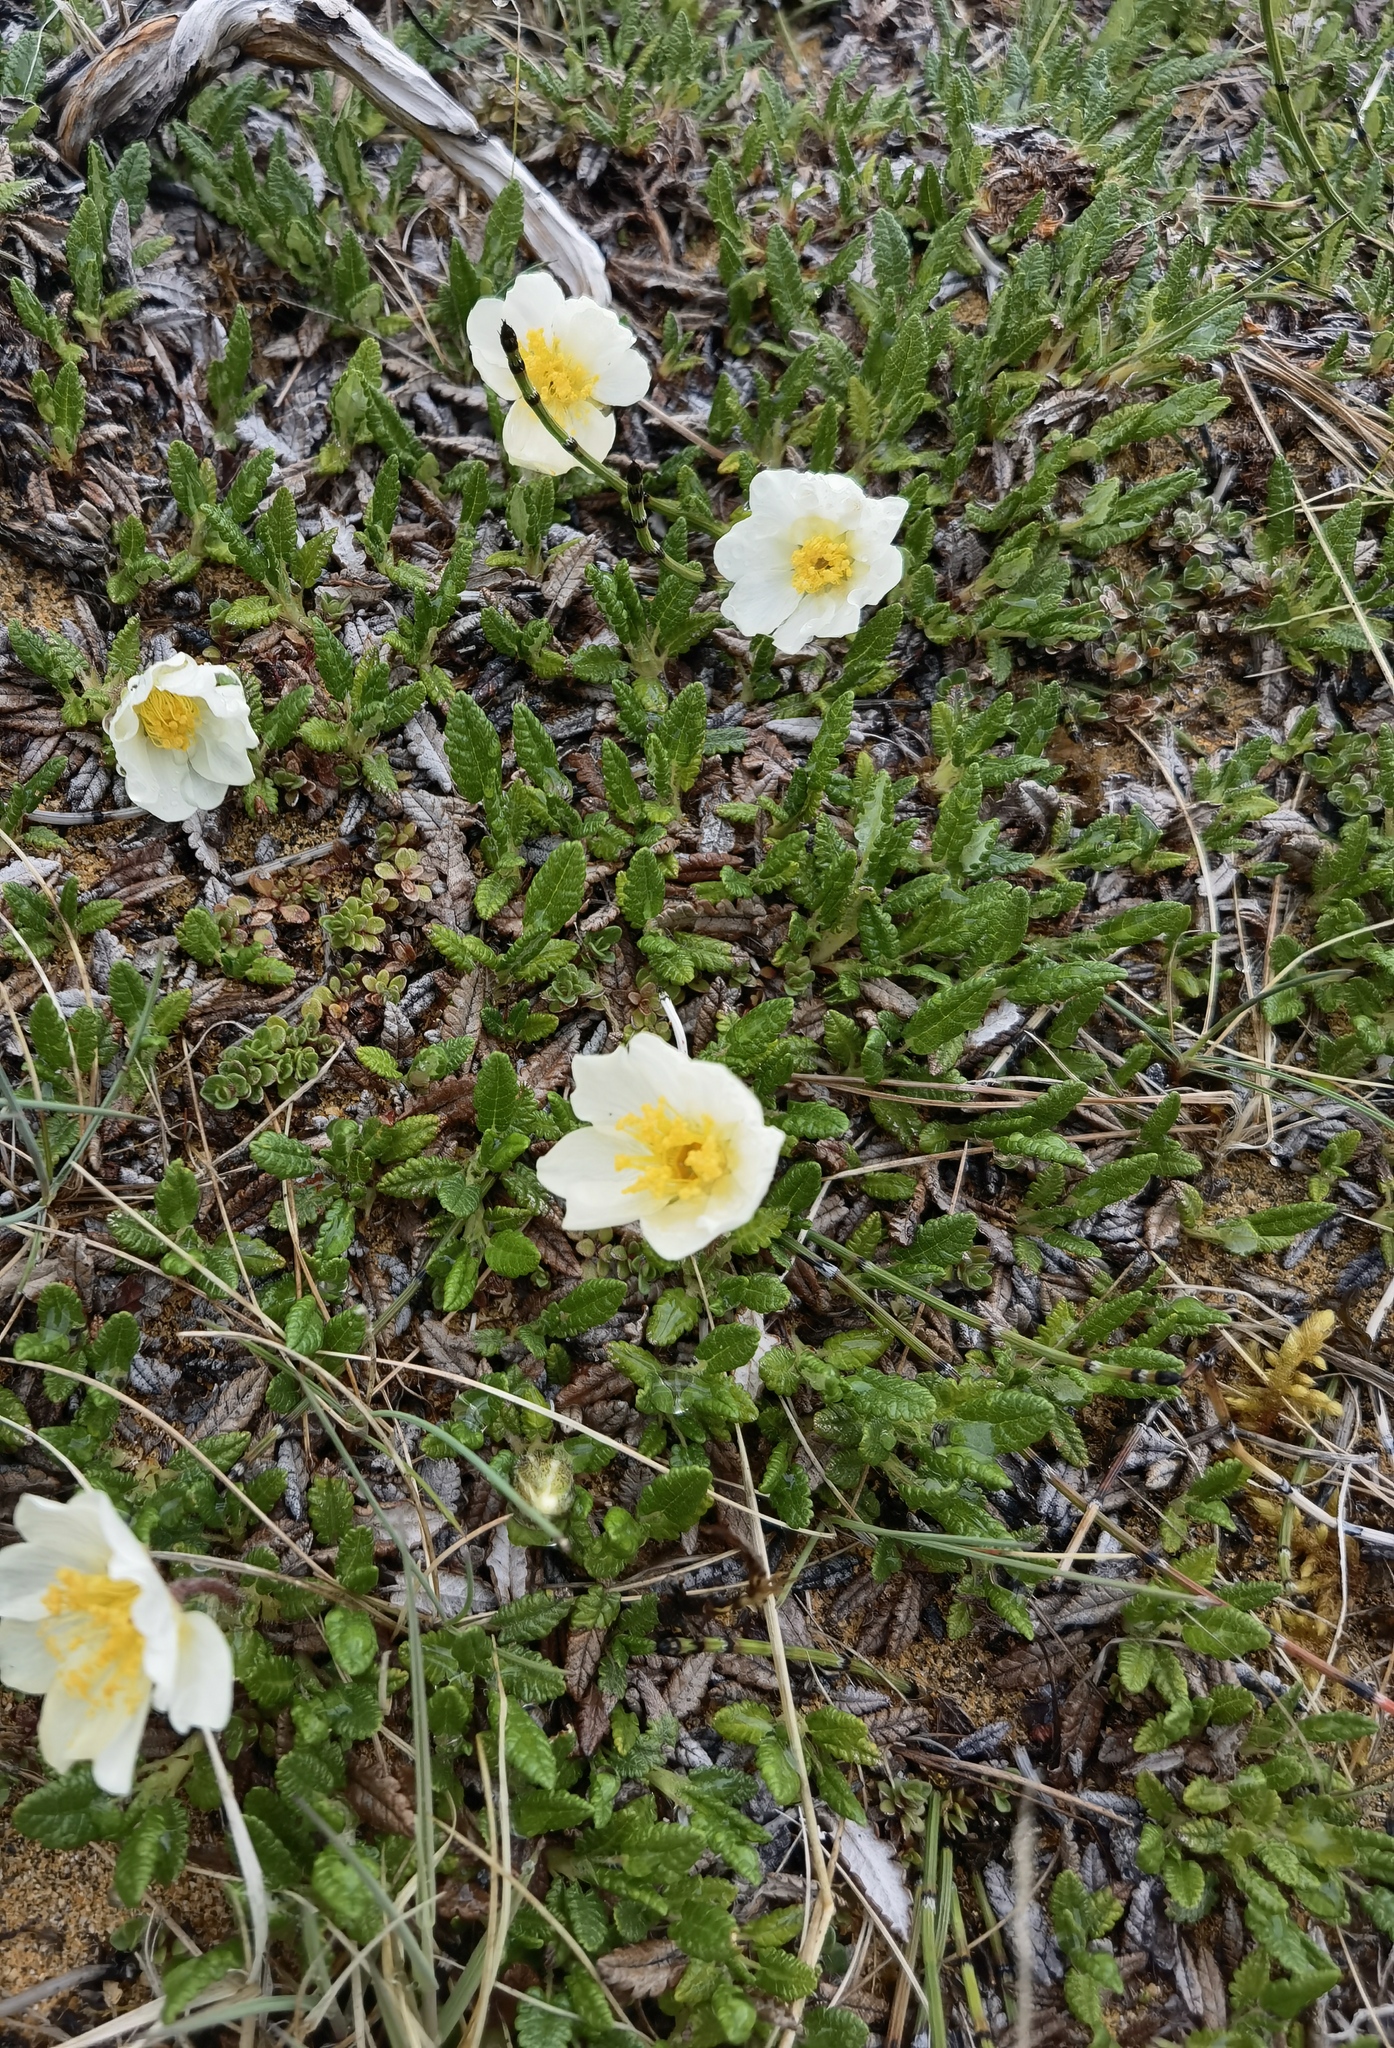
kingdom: Plantae
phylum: Tracheophyta
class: Magnoliopsida
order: Rosales
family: Rosaceae
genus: Dryas
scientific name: Dryas octopetala
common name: Eight-petal mountain-avens
